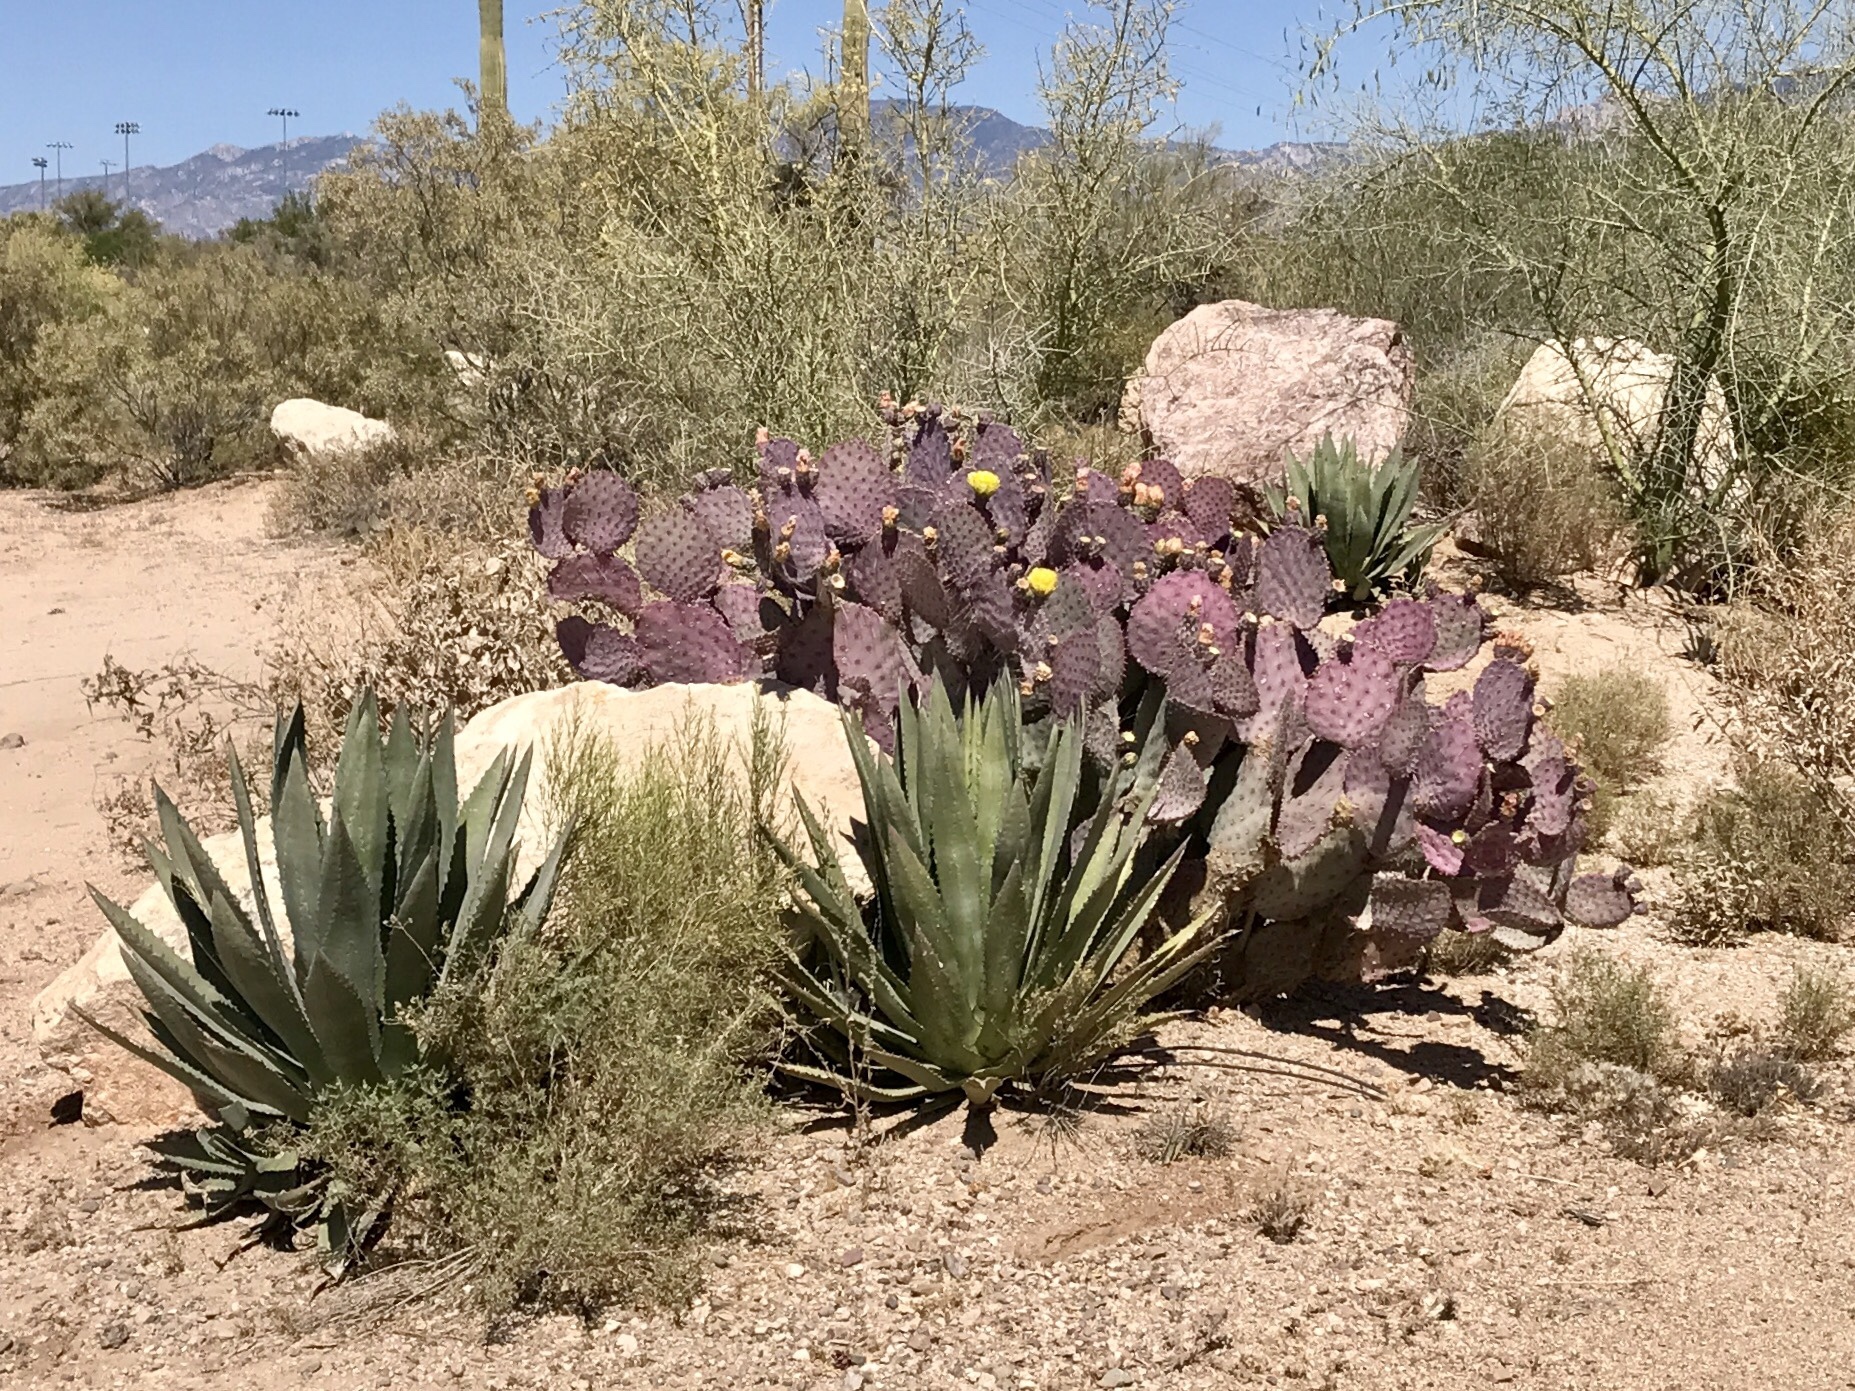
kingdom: Plantae
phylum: Tracheophyta
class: Magnoliopsida
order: Caryophyllales
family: Cactaceae
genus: Opuntia
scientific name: Opuntia gosseliniana
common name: Violet prickly-pear
